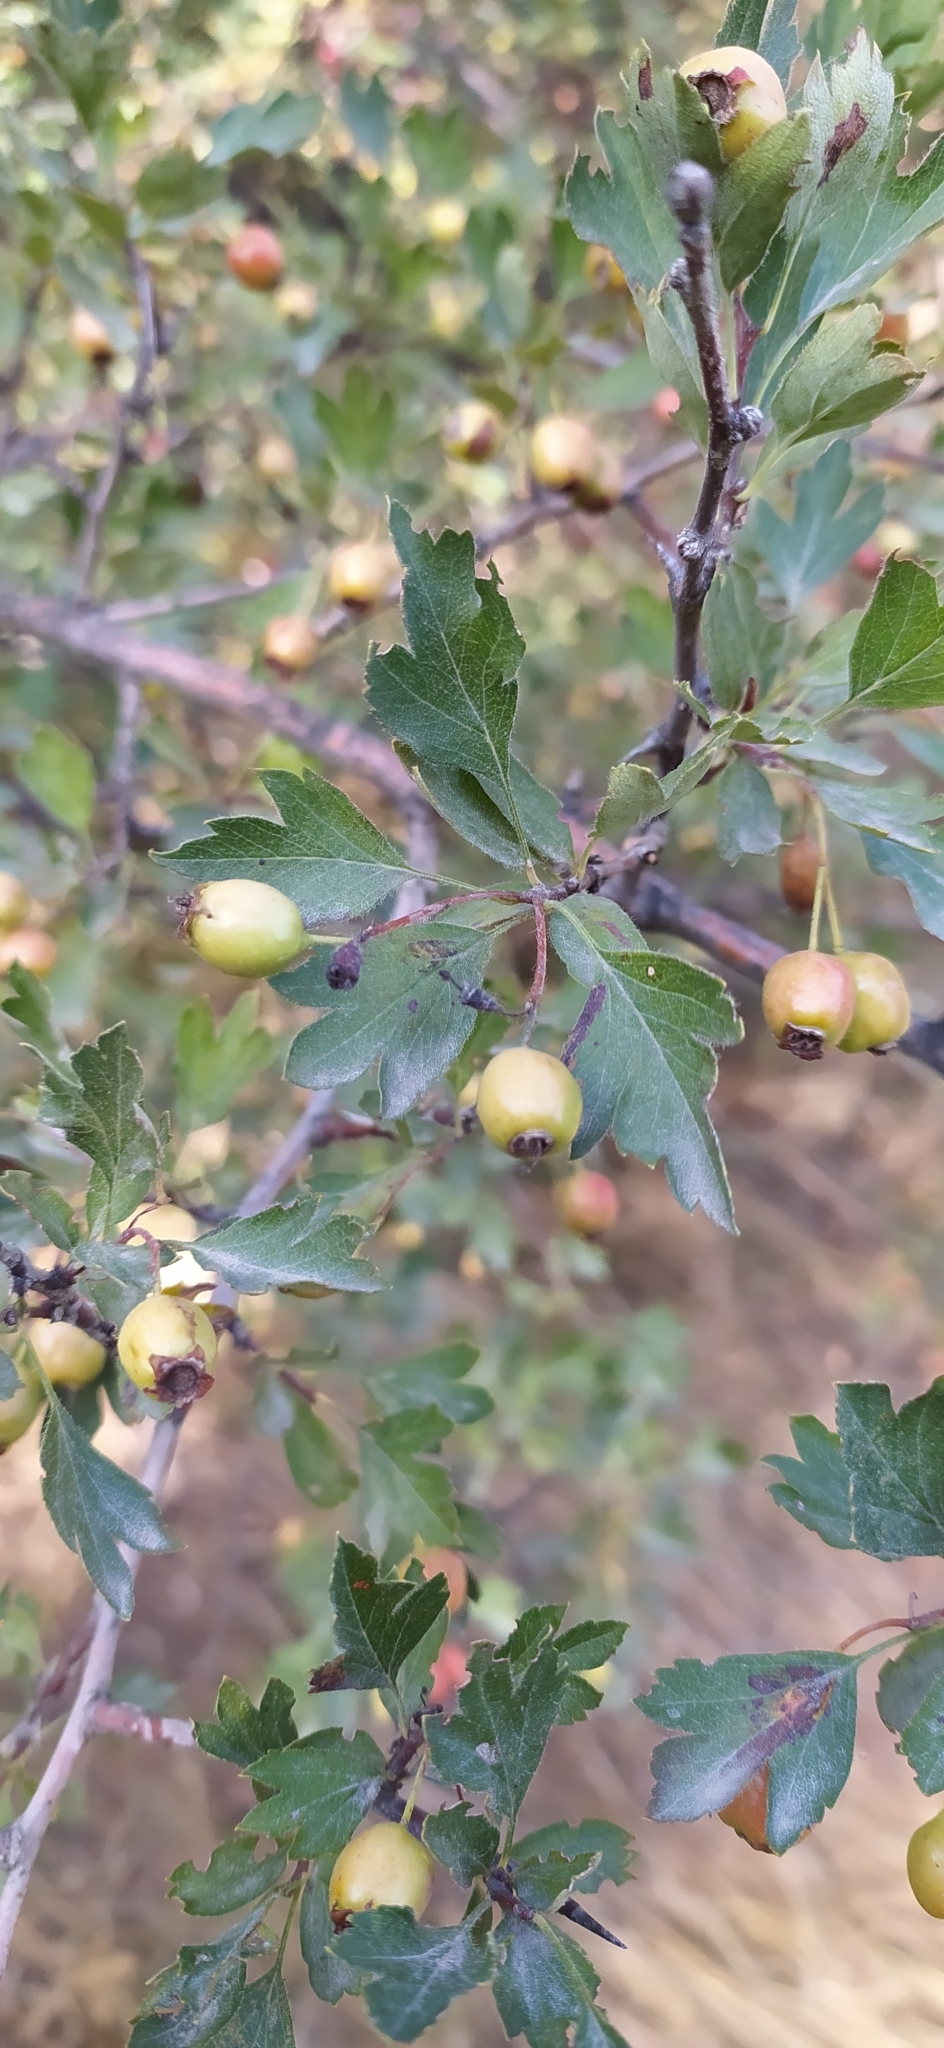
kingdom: Plantae
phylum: Tracheophyta
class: Magnoliopsida
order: Rosales
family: Rosaceae
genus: Crataegus
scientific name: Crataegus turkestanica
